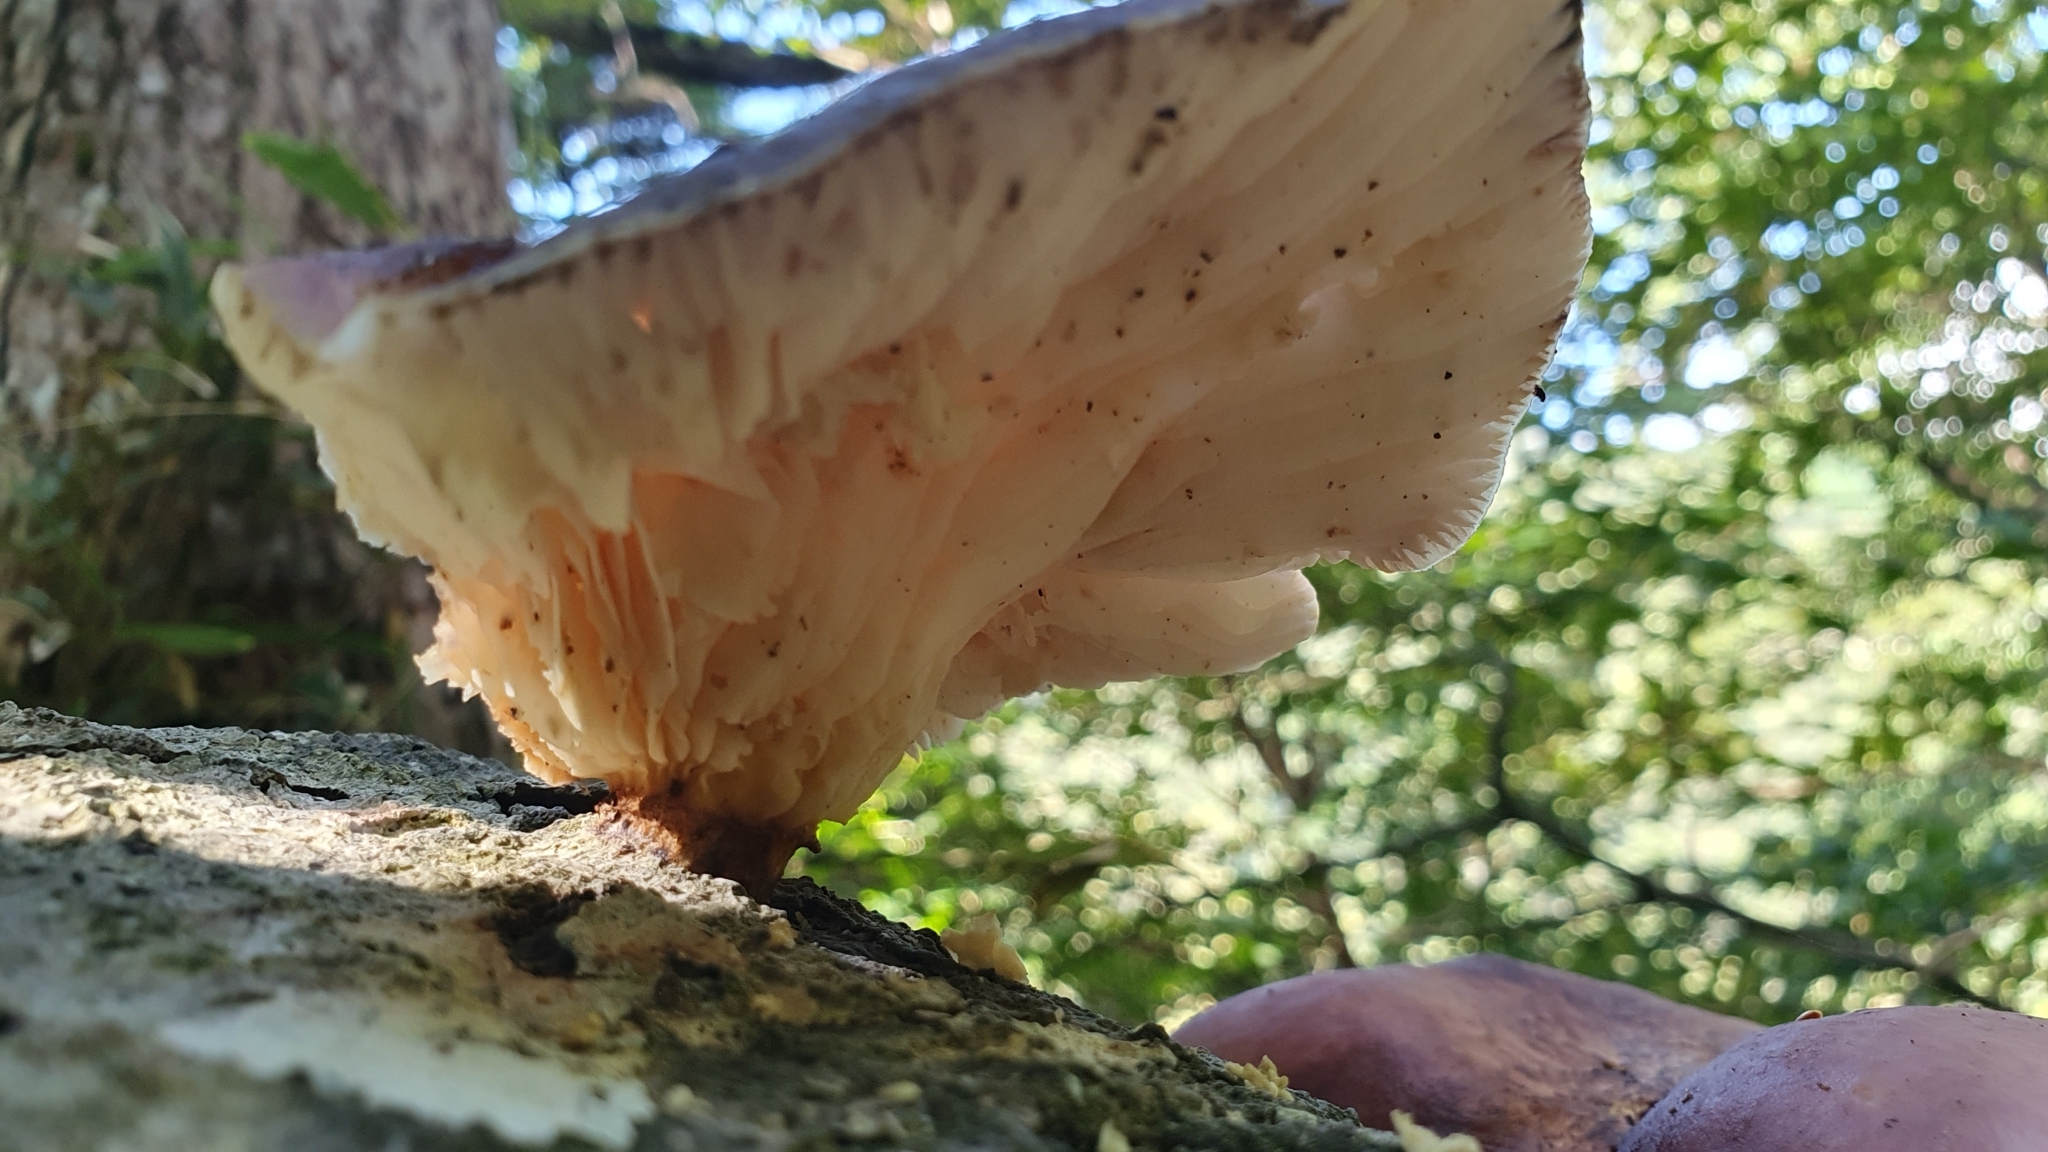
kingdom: Fungi
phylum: Basidiomycota
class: Agaricomycetes
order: Agaricales
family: Omphalotaceae
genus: Omphalotus
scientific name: Omphalotus guepiniiformis
